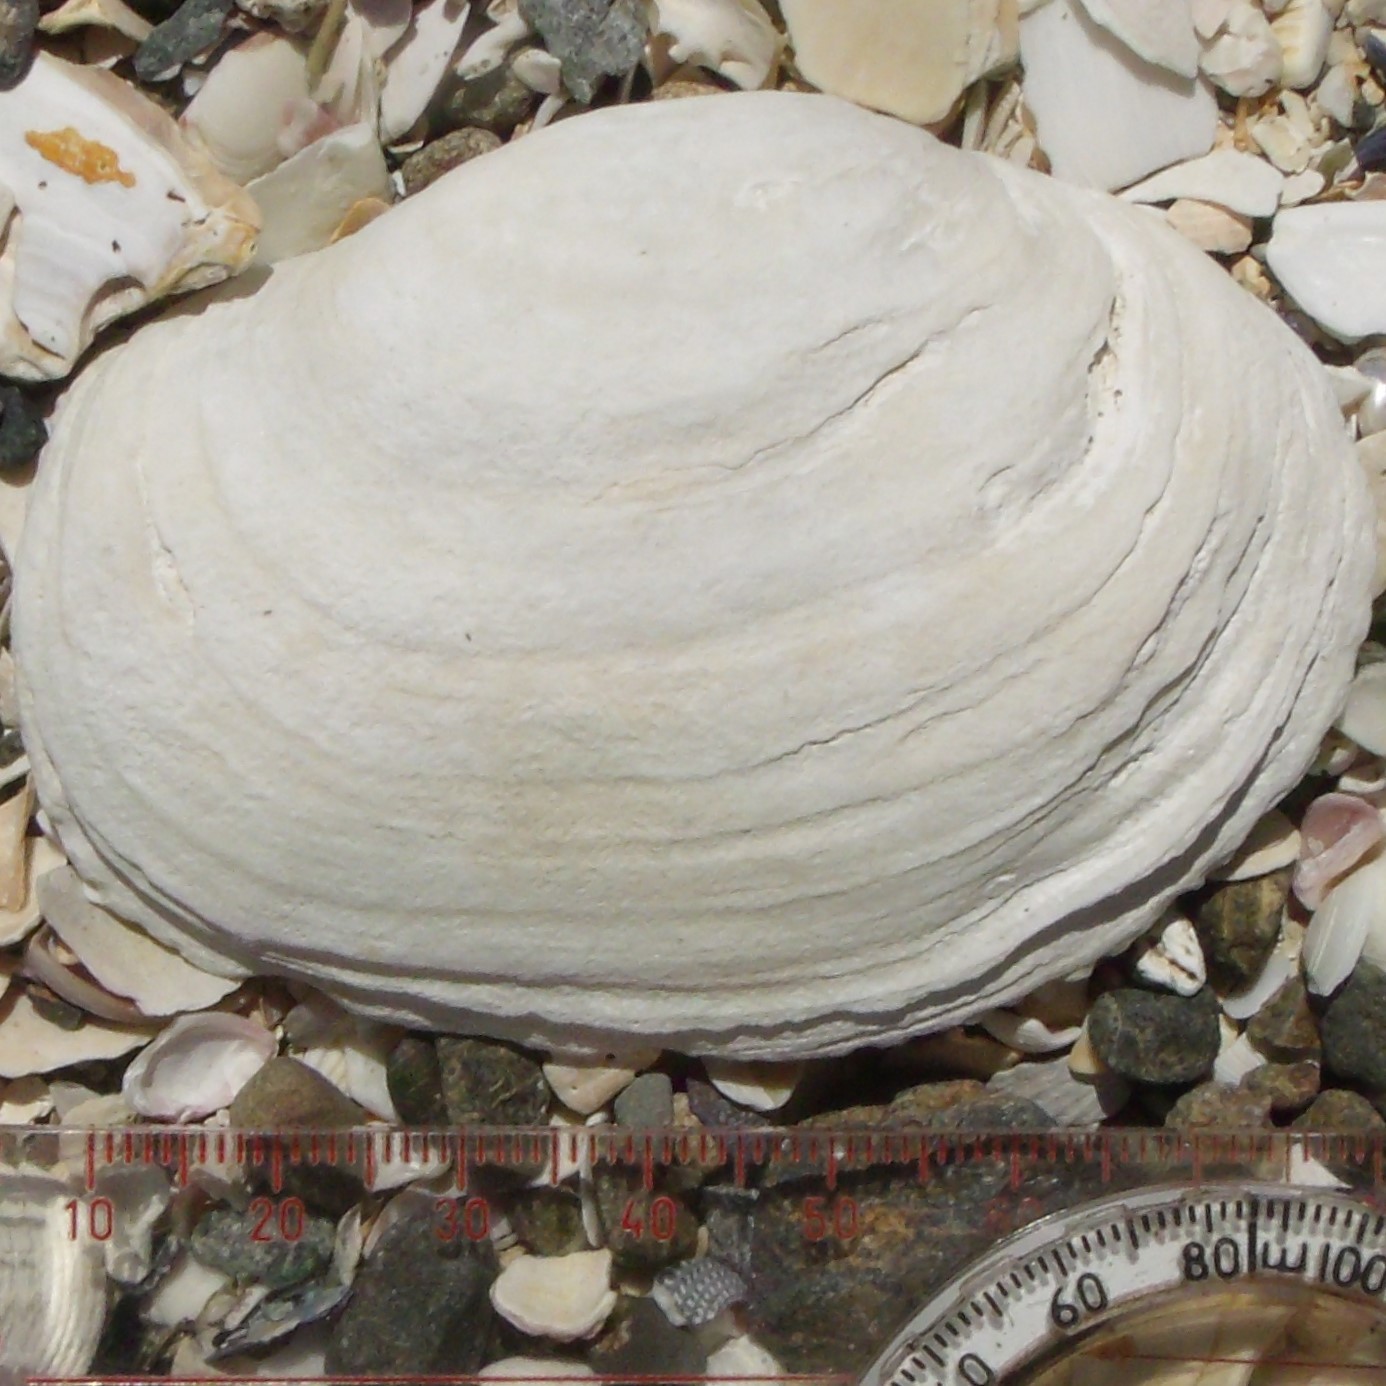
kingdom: Animalia
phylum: Mollusca
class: Bivalvia
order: Adapedonta
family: Hiatellidae
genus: Panopea
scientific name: Panopea zelandica
